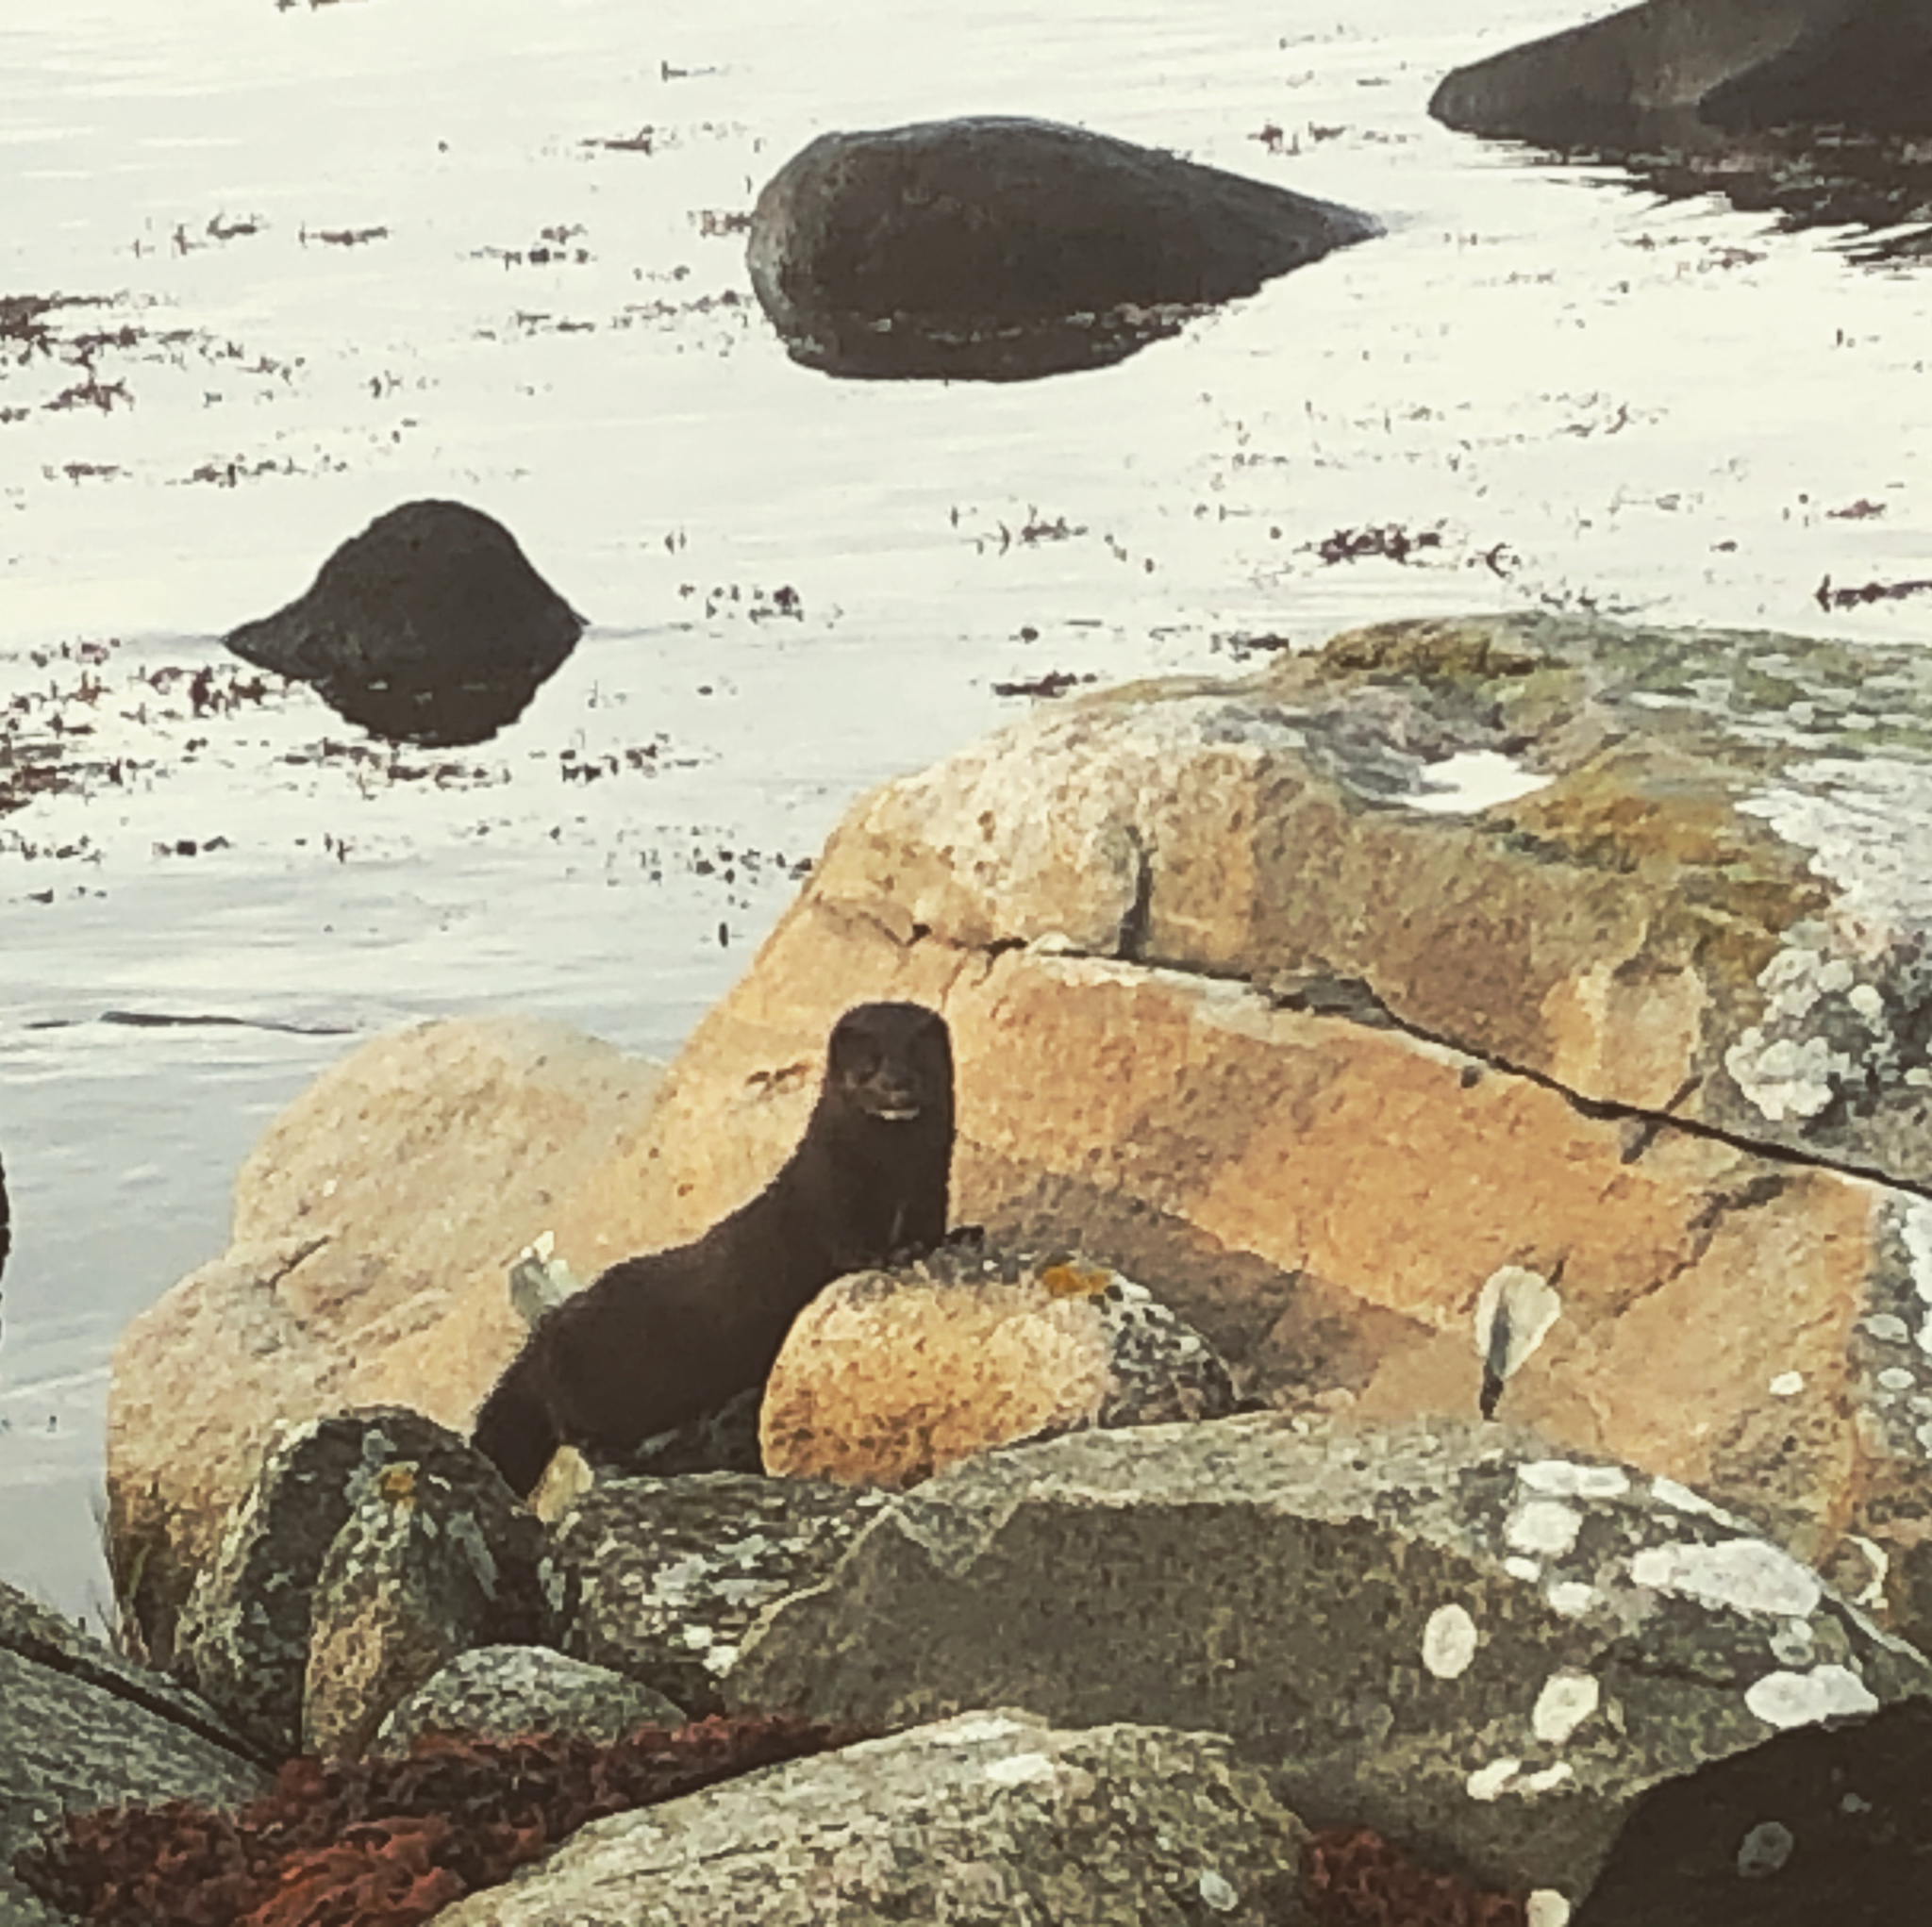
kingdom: Animalia
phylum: Chordata
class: Mammalia
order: Carnivora
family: Mustelidae
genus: Mustela
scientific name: Mustela
